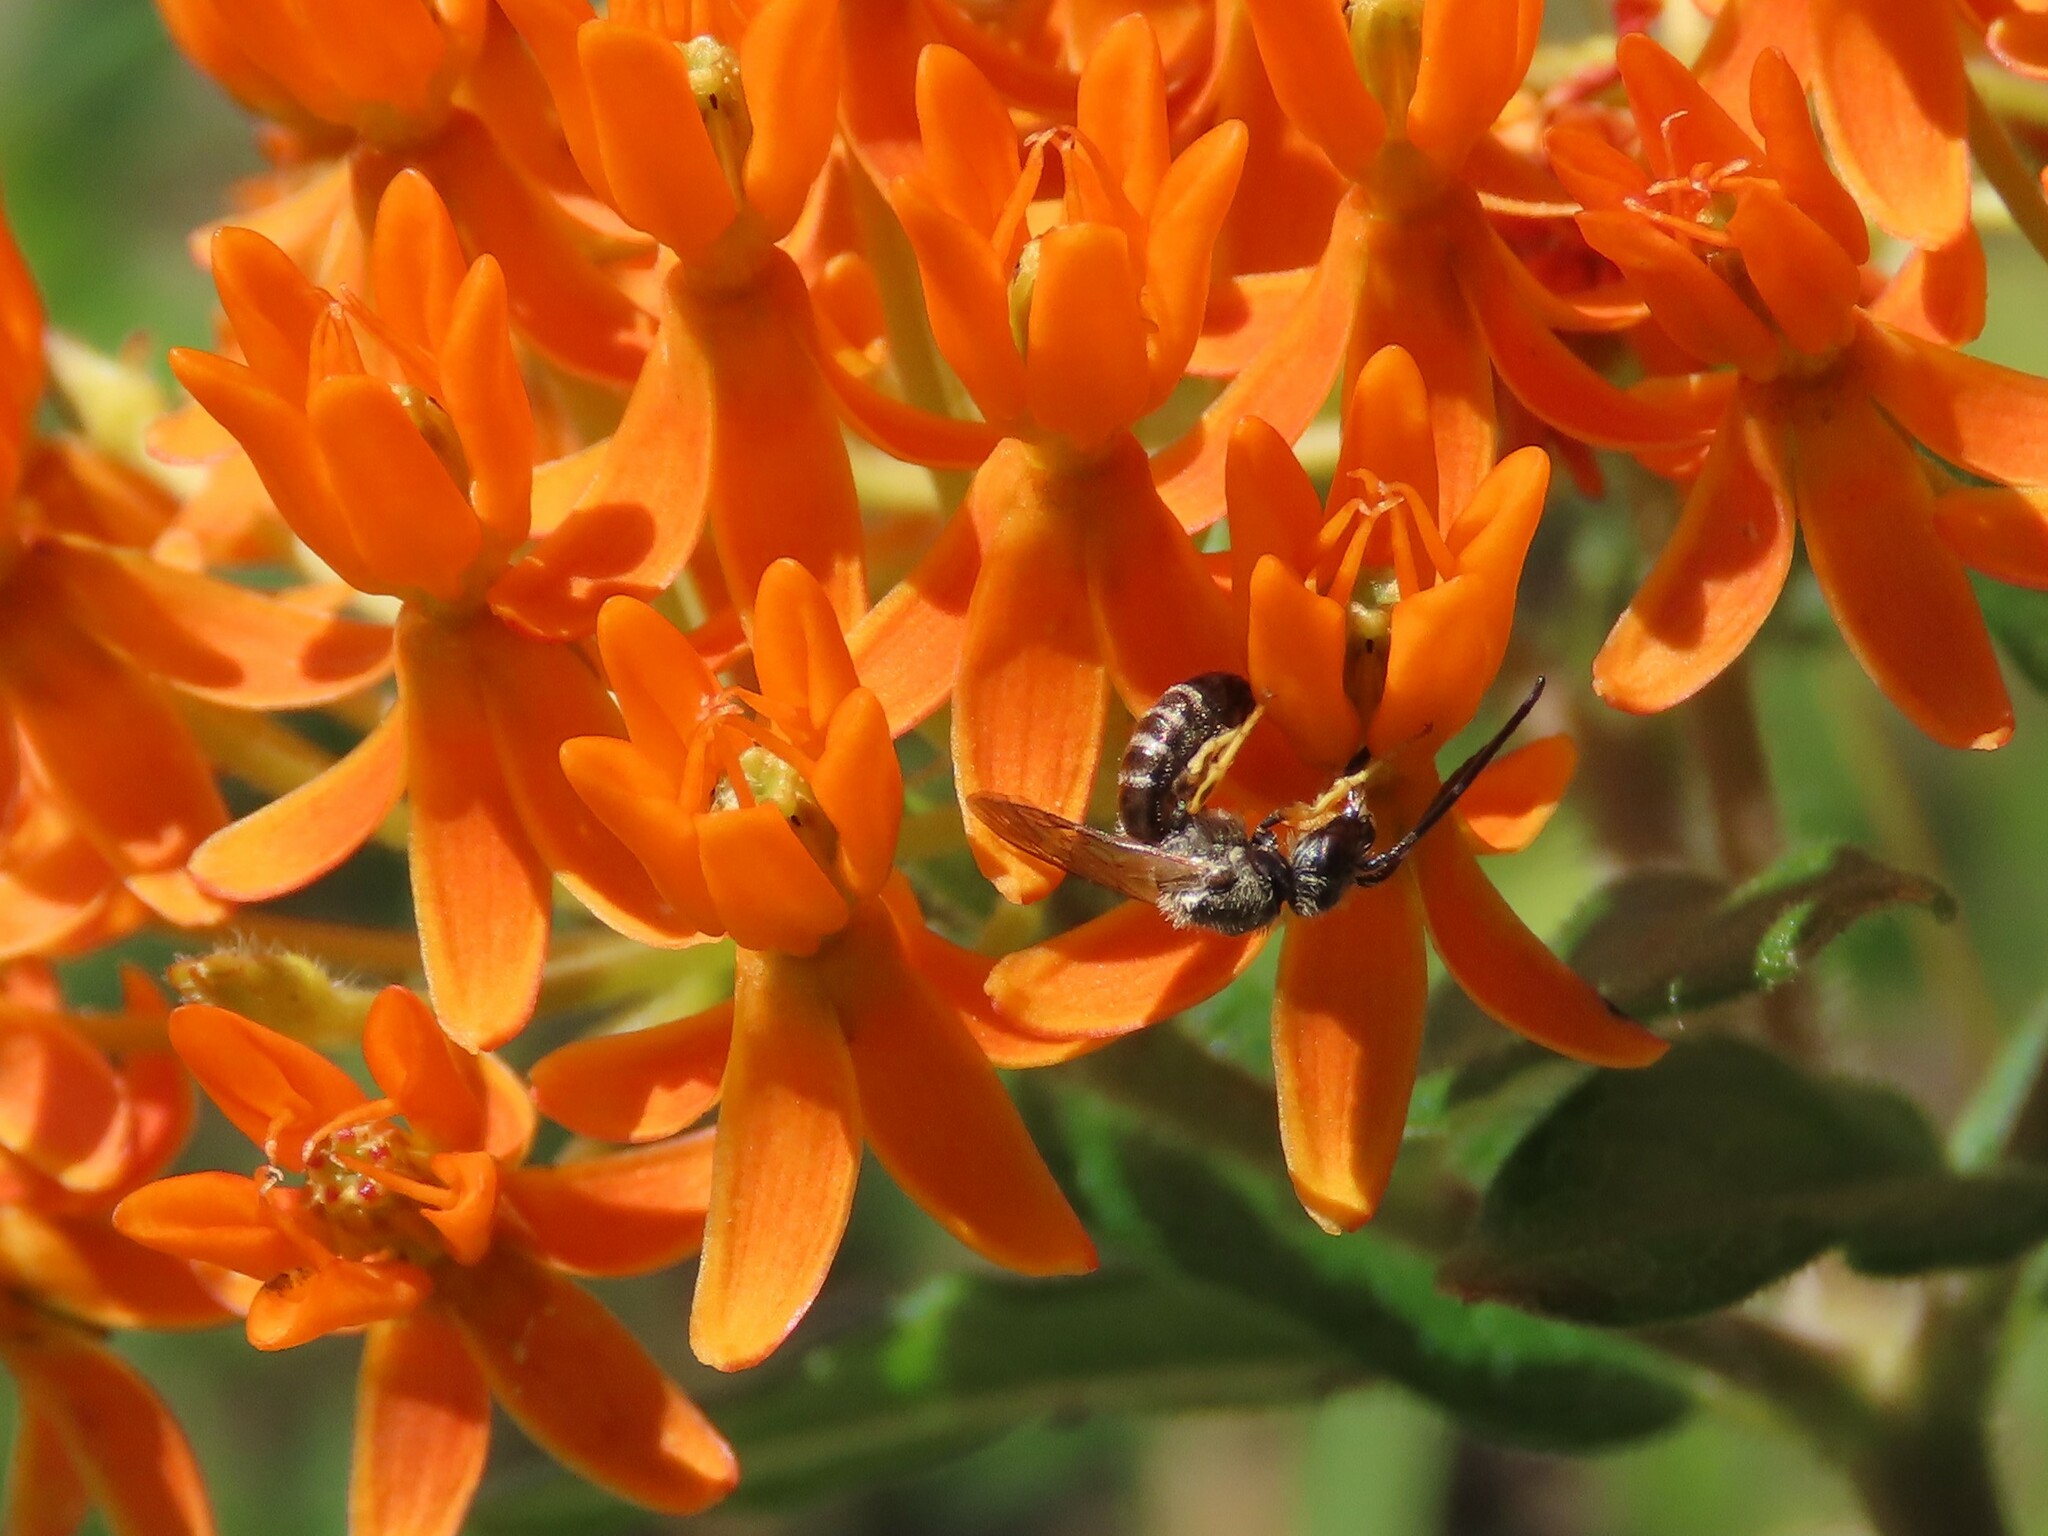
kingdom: Animalia
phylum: Arthropoda
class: Insecta
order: Hymenoptera
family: Halictidae
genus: Halictus
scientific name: Halictus confusus
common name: Southern bronze furrow bee
